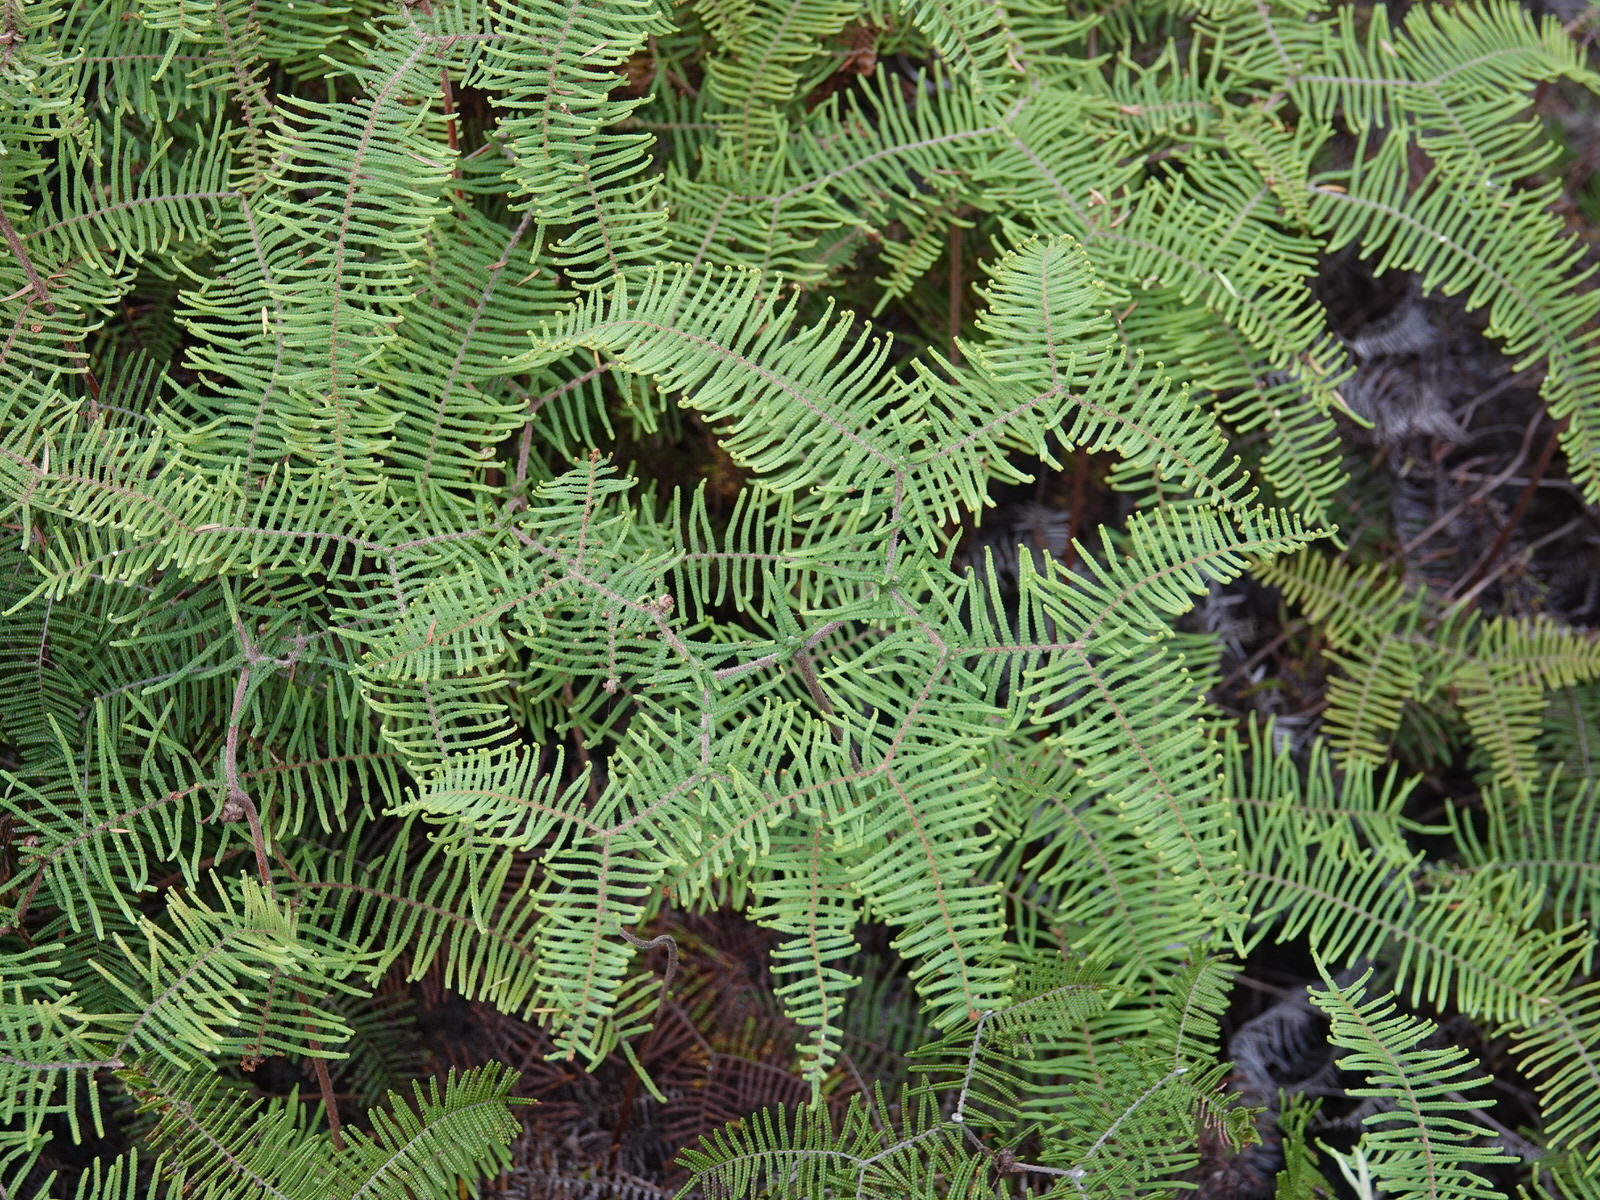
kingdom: Plantae
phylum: Tracheophyta
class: Polypodiopsida
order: Gleicheniales
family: Gleicheniaceae
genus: Gleichenia
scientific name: Gleichenia dicarpa
